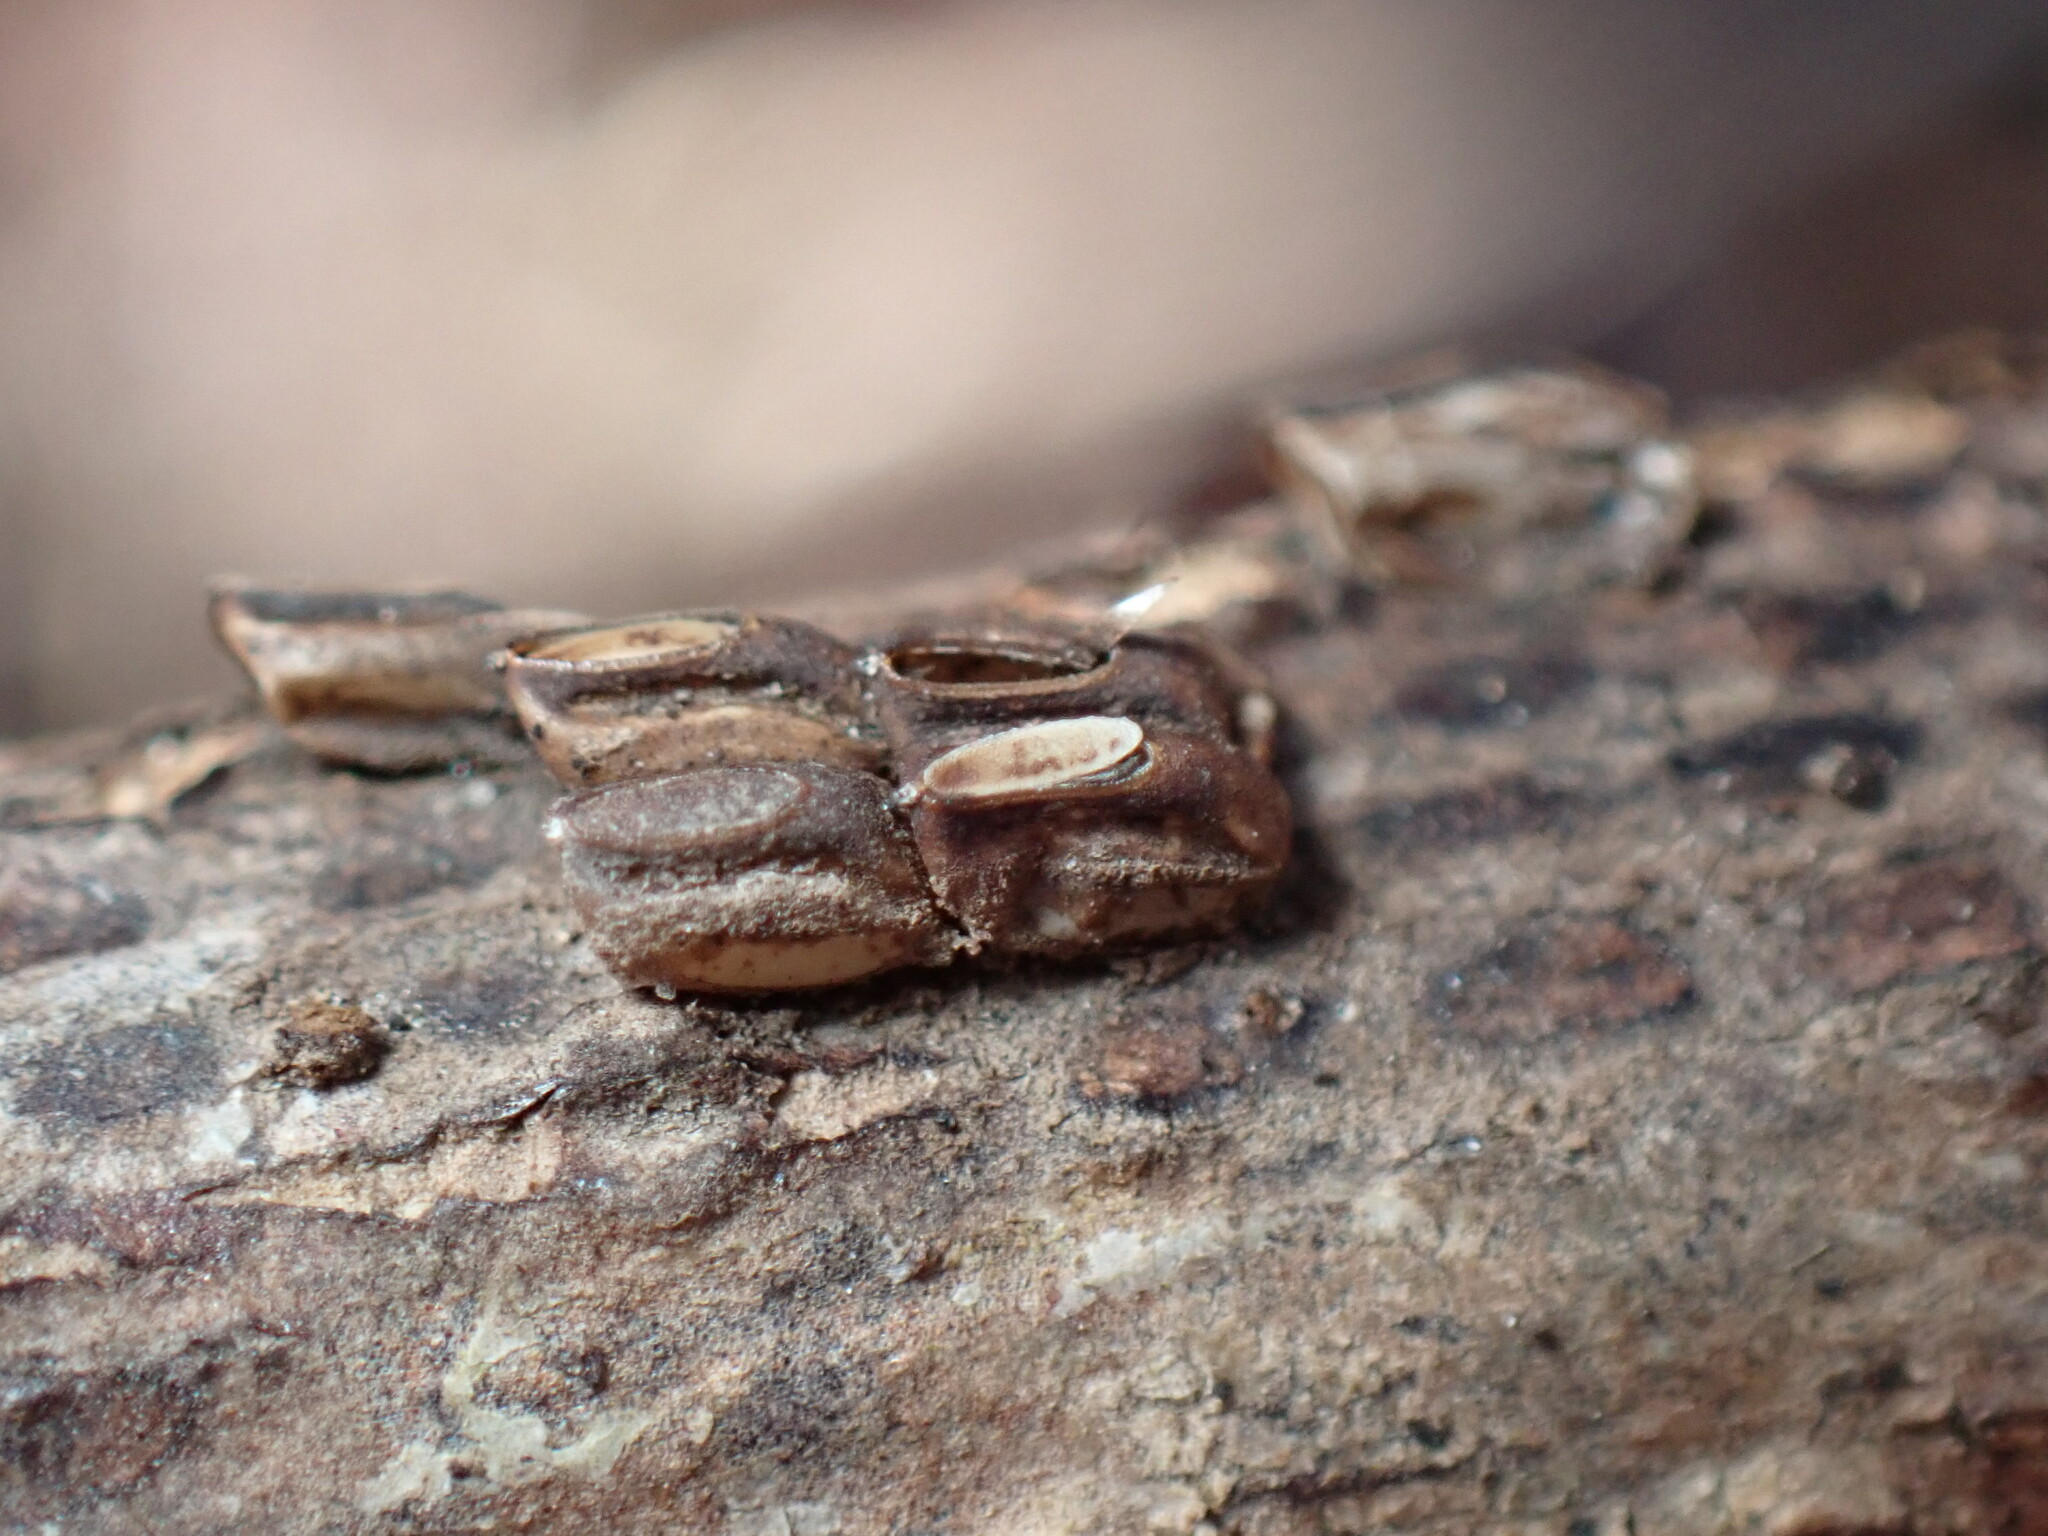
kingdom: Animalia
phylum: Arthropoda
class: Insecta
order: Hemiptera
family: Fulgoridae
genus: Lycorma
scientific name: Lycorma delicatula
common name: Spotted lanternfly
